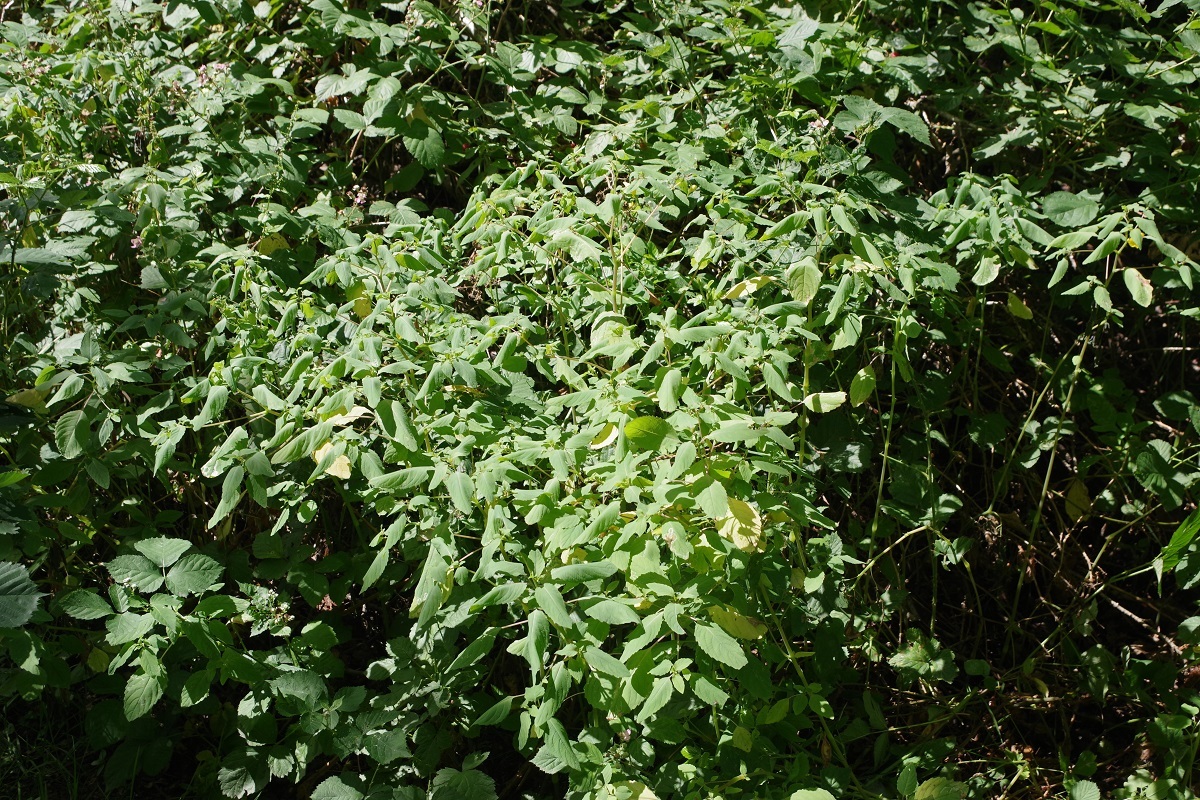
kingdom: Plantae
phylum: Tracheophyta
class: Magnoliopsida
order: Ericales
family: Balsaminaceae
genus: Impatiens
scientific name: Impatiens noli-tangere
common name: Touch-me-not balsam
